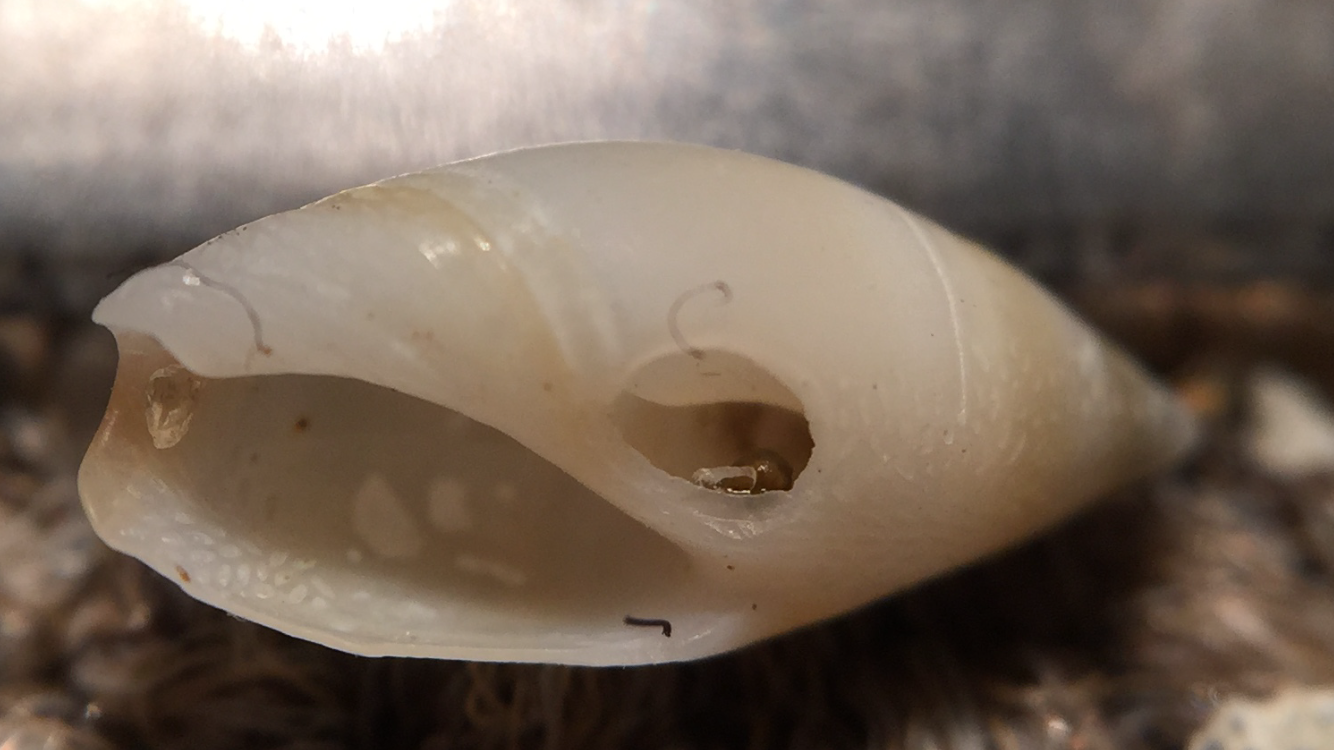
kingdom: Animalia
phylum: Mollusca
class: Gastropoda
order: Neogastropoda
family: Ancillariidae
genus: Amalda
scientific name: Amalda novaezelandiae
